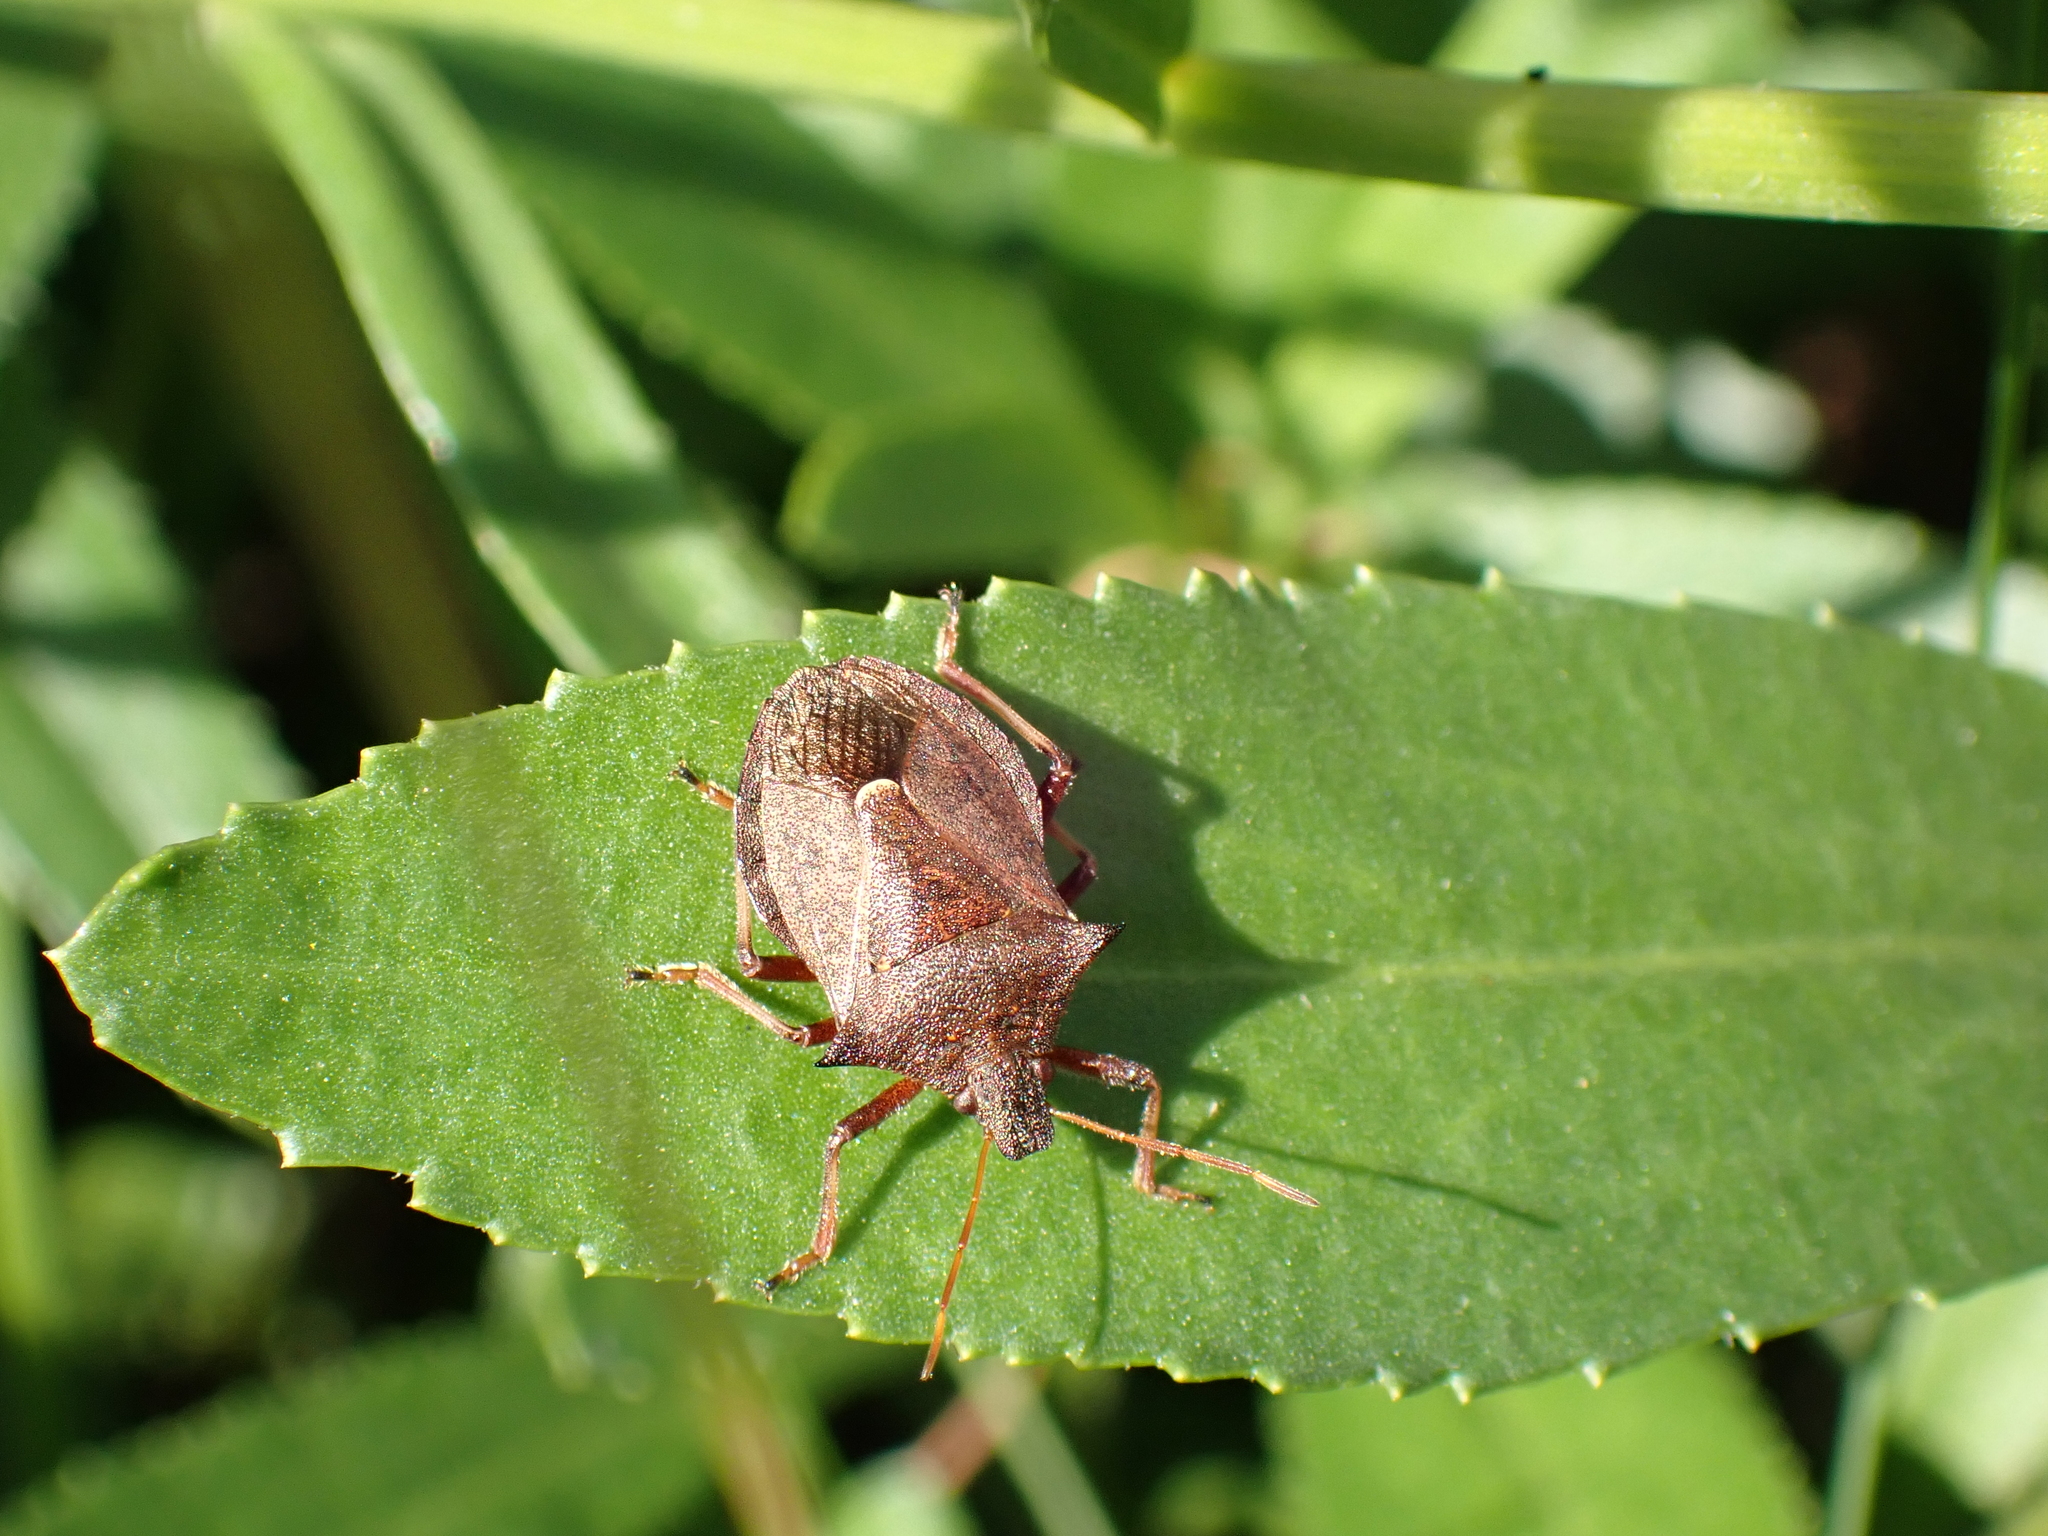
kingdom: Animalia
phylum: Arthropoda
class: Insecta
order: Hemiptera
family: Pentatomidae
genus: Picromerus
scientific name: Picromerus bidens
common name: Spiked shieldbug
